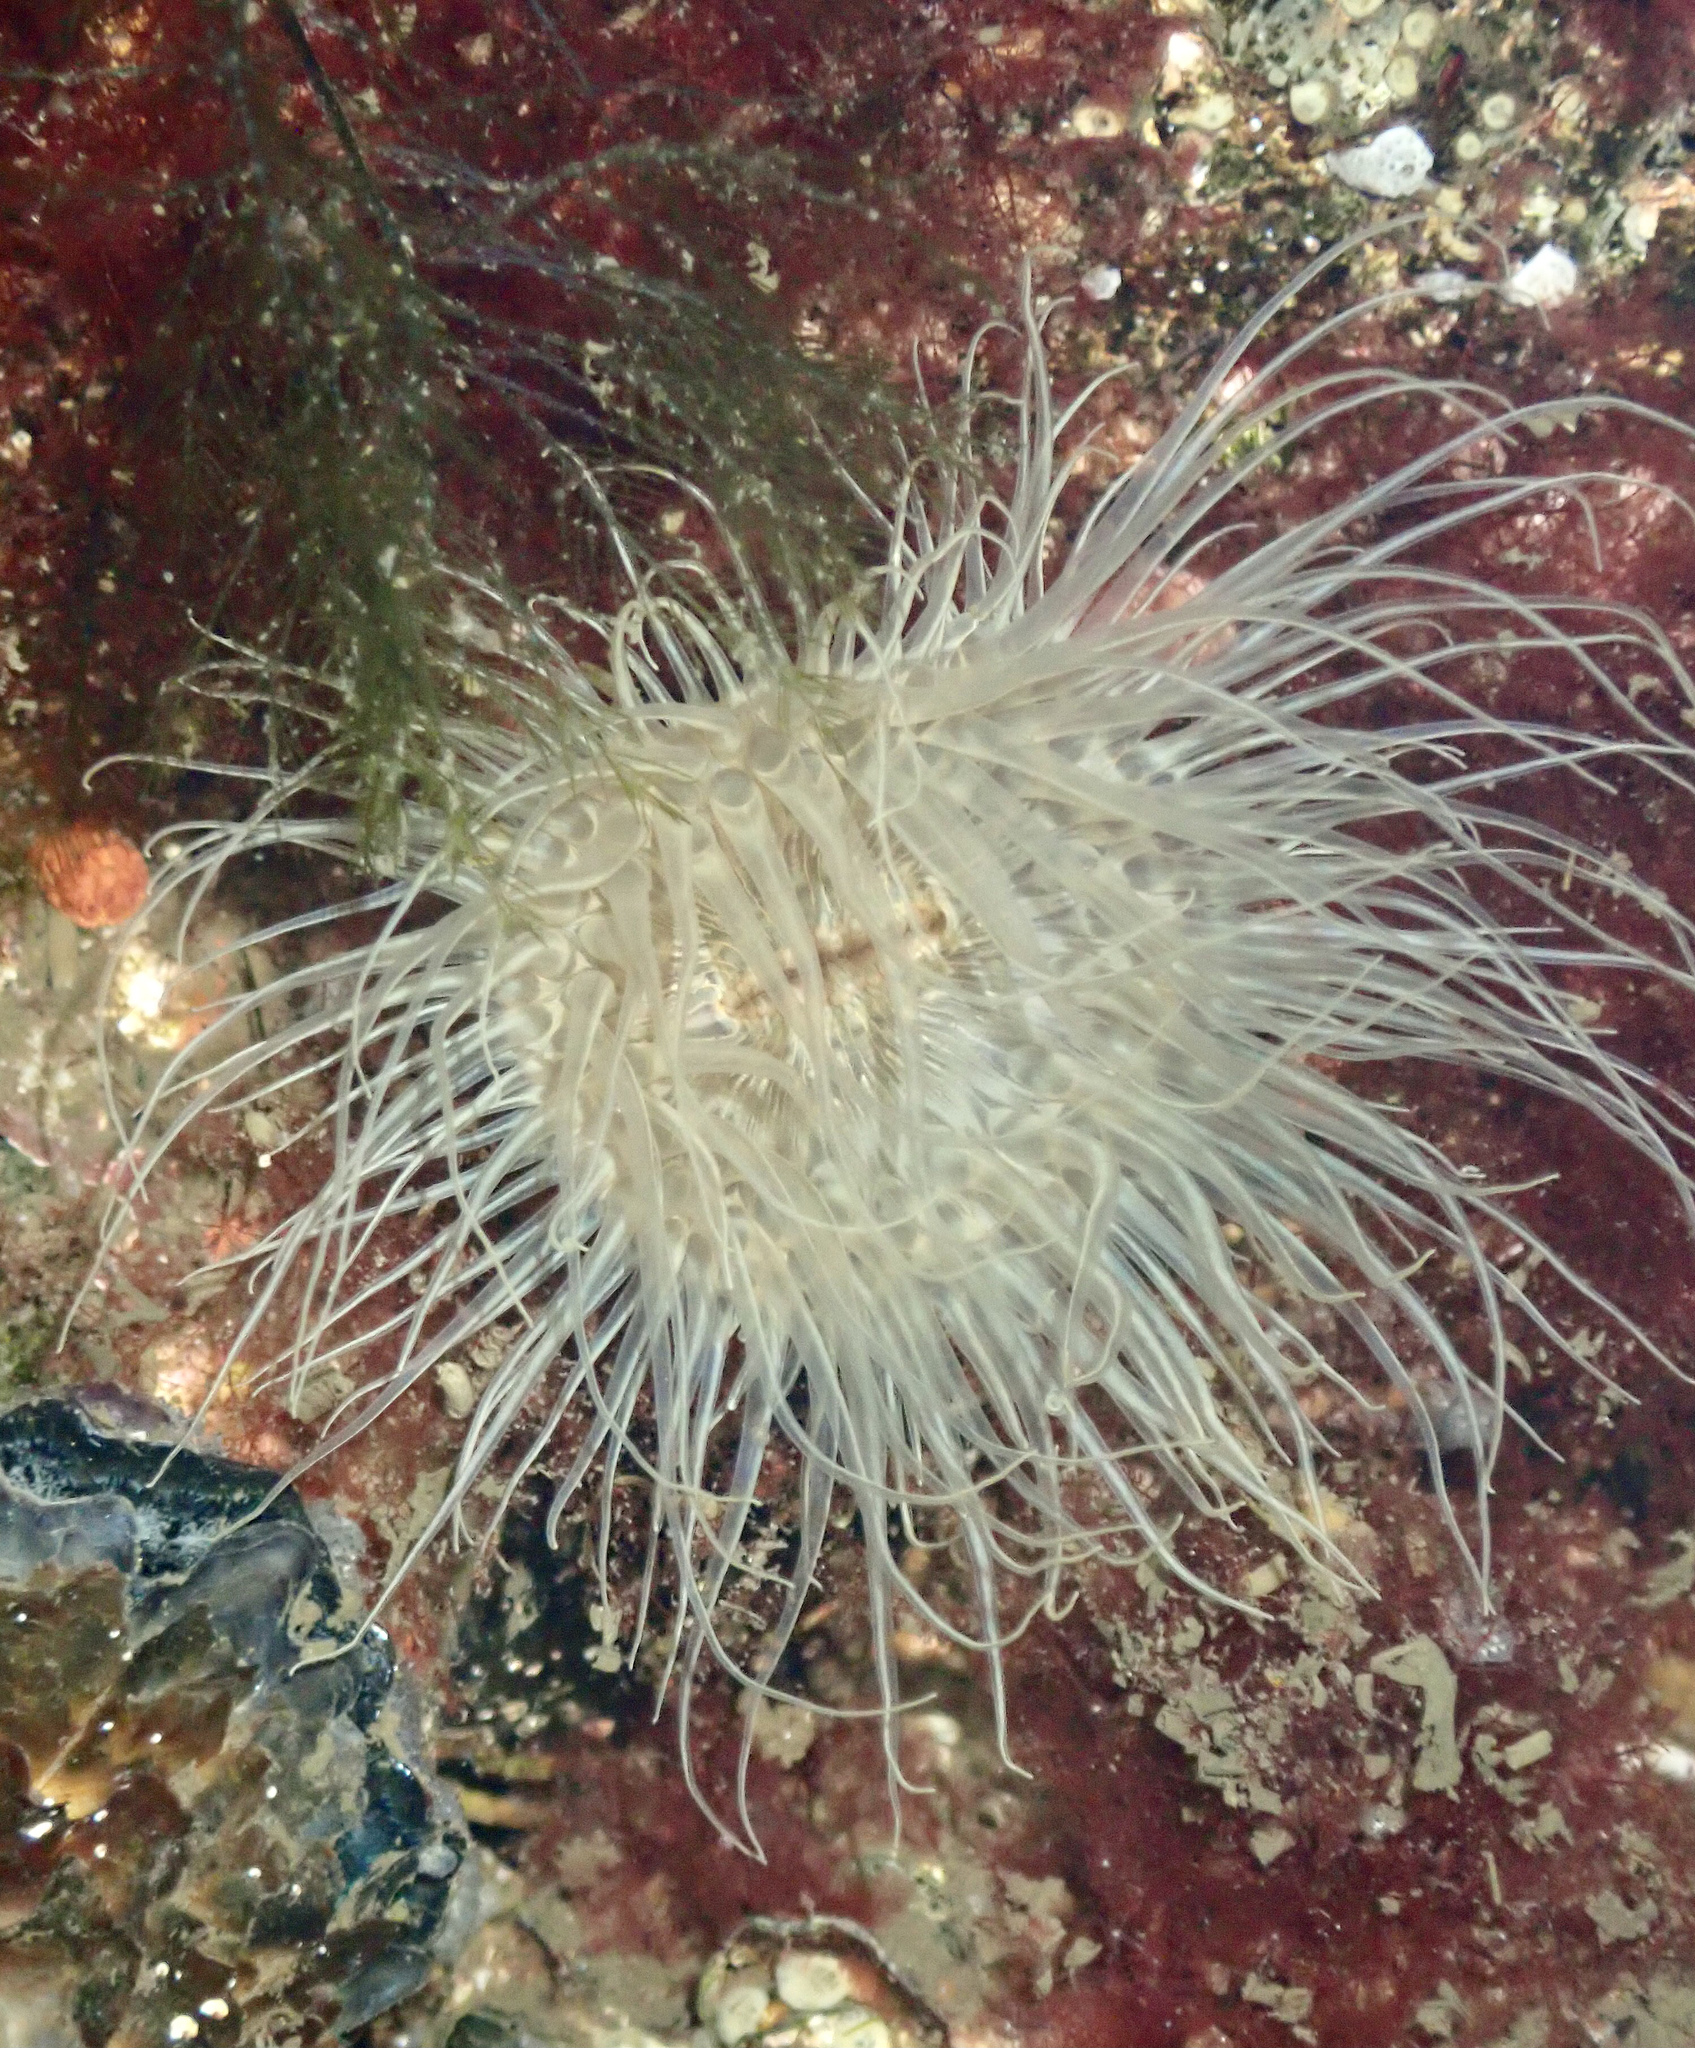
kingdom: Animalia
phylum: Cnidaria
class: Anthozoa
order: Actiniaria
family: Sagartiidae
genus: Sagartia
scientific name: Sagartia undata
